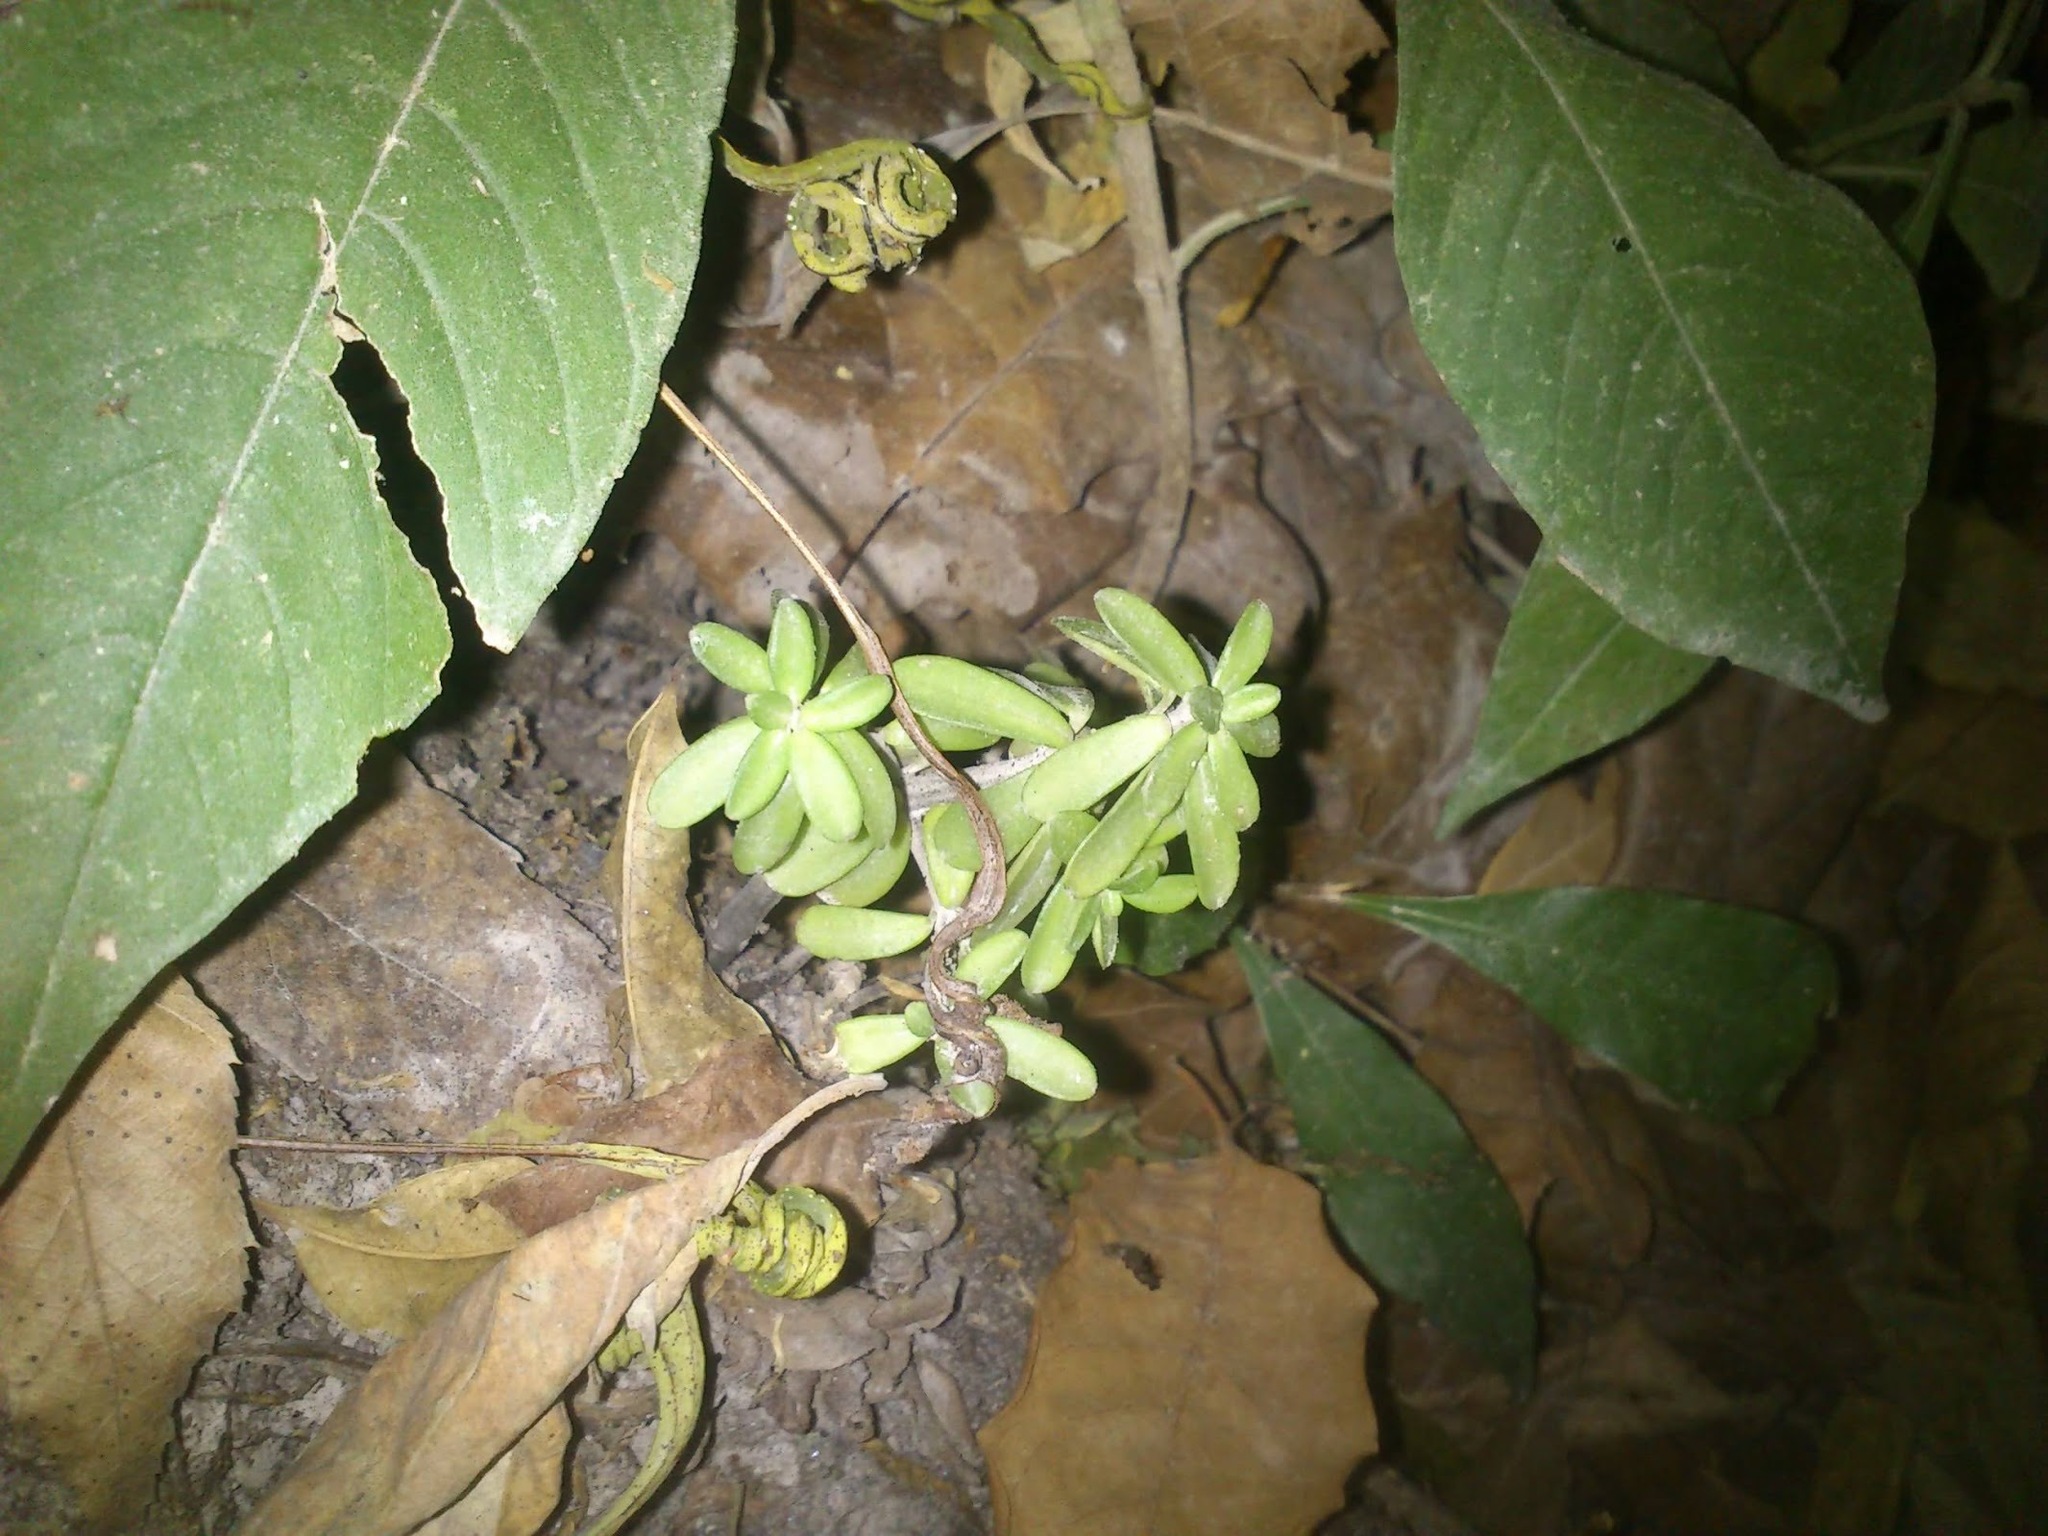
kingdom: Plantae
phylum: Tracheophyta
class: Magnoliopsida
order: Piperales
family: Piperaceae
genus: Peperomia
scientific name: Peperomia leptophylla
